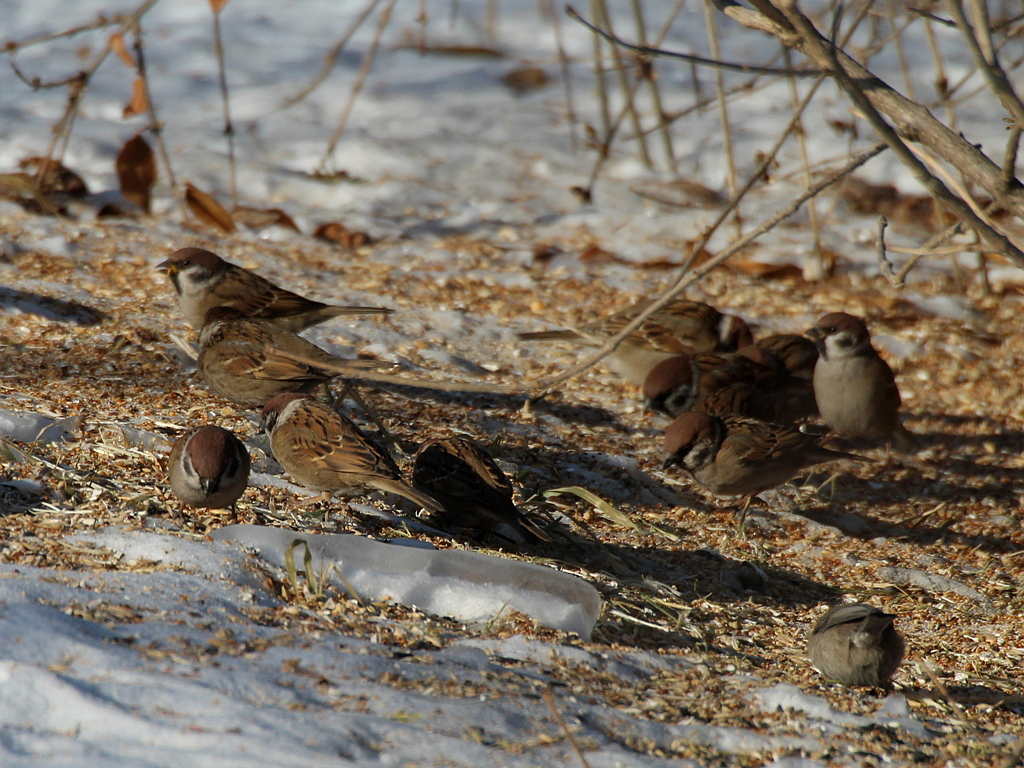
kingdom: Animalia
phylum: Chordata
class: Aves
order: Passeriformes
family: Passeridae
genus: Passer
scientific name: Passer montanus
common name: Eurasian tree sparrow
